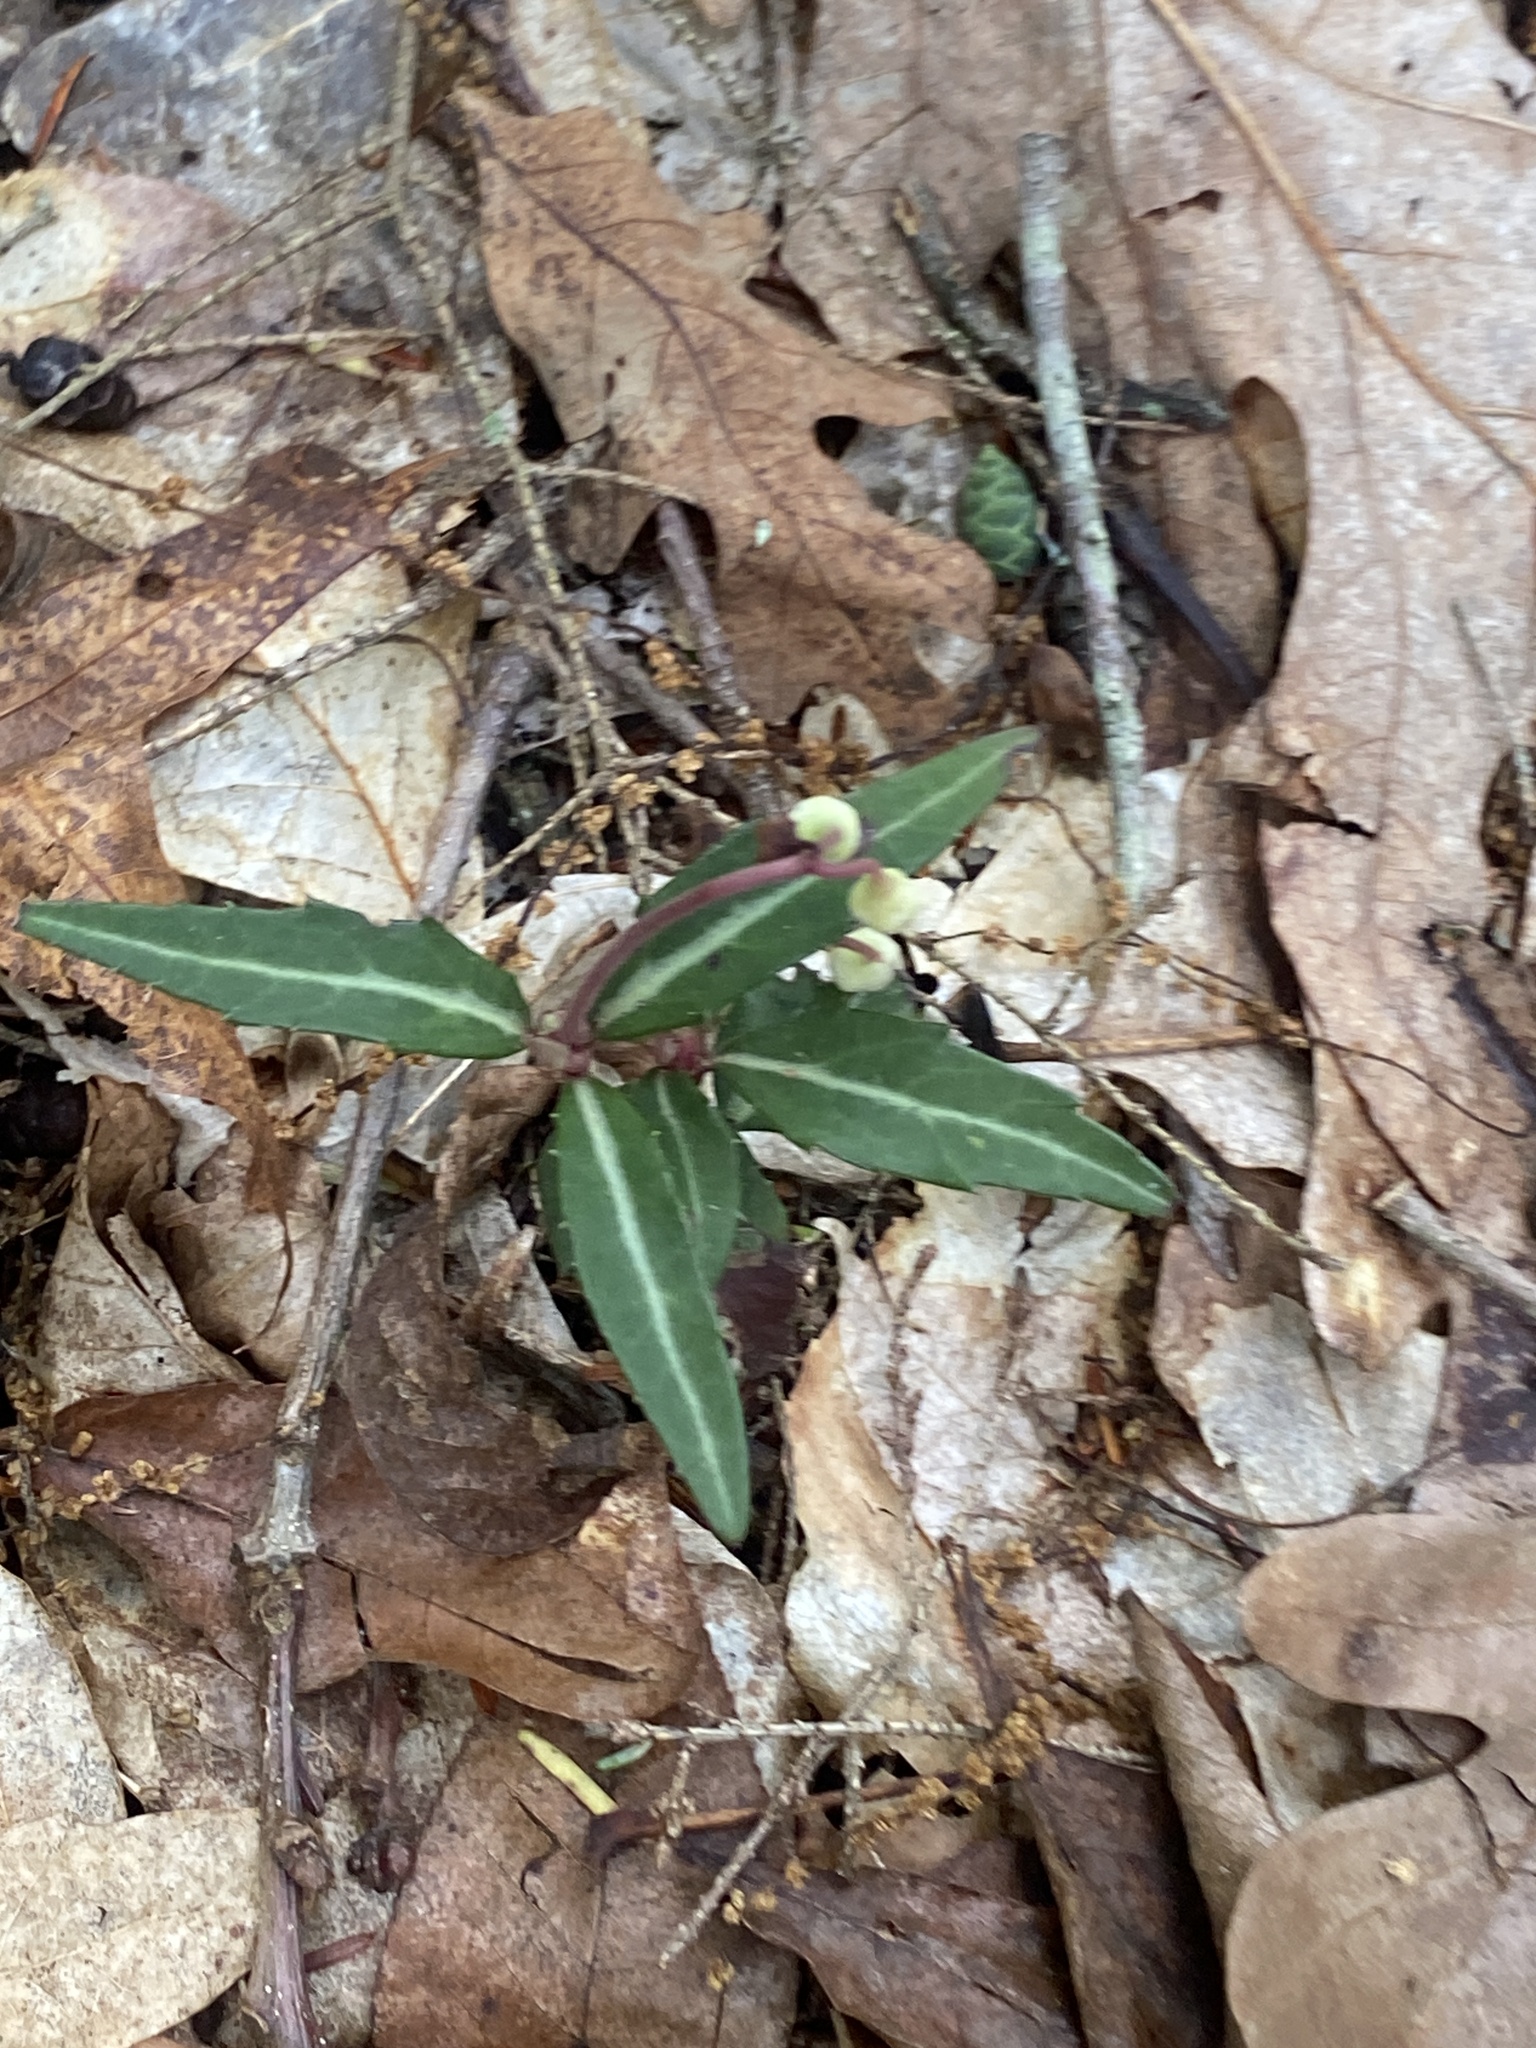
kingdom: Plantae
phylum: Tracheophyta
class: Magnoliopsida
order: Ericales
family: Ericaceae
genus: Chimaphila
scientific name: Chimaphila maculata
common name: Spotted pipsissewa
